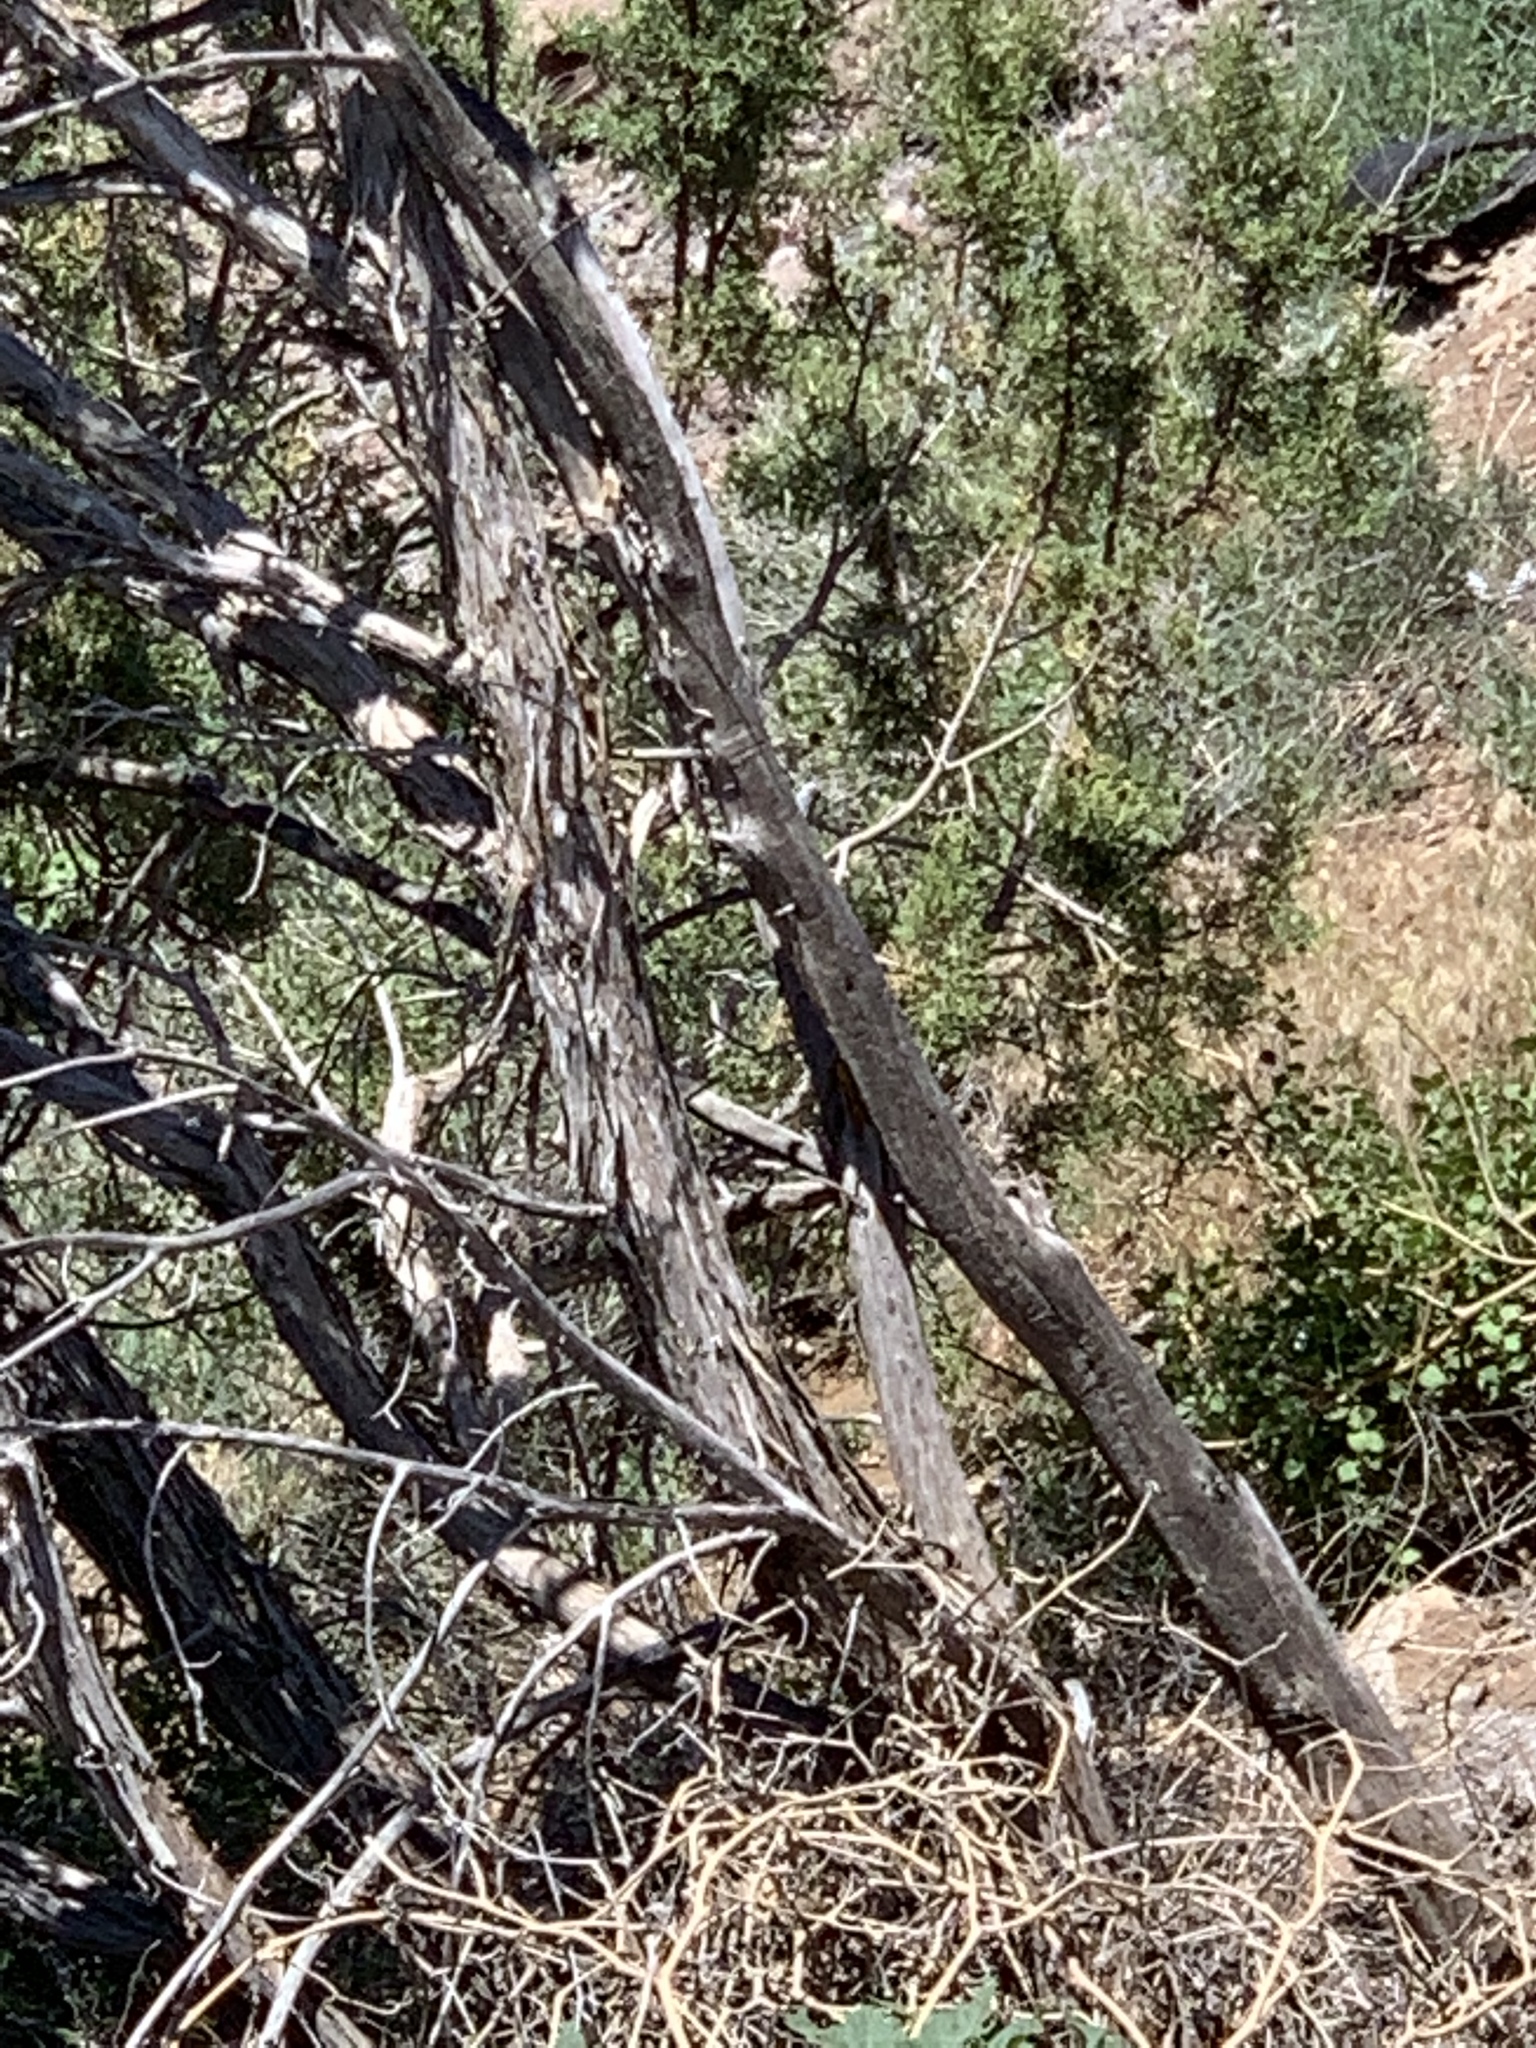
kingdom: Plantae
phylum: Tracheophyta
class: Pinopsida
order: Pinales
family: Cupressaceae
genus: Juniperus
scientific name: Juniperus osteosperma
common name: Utah juniper
